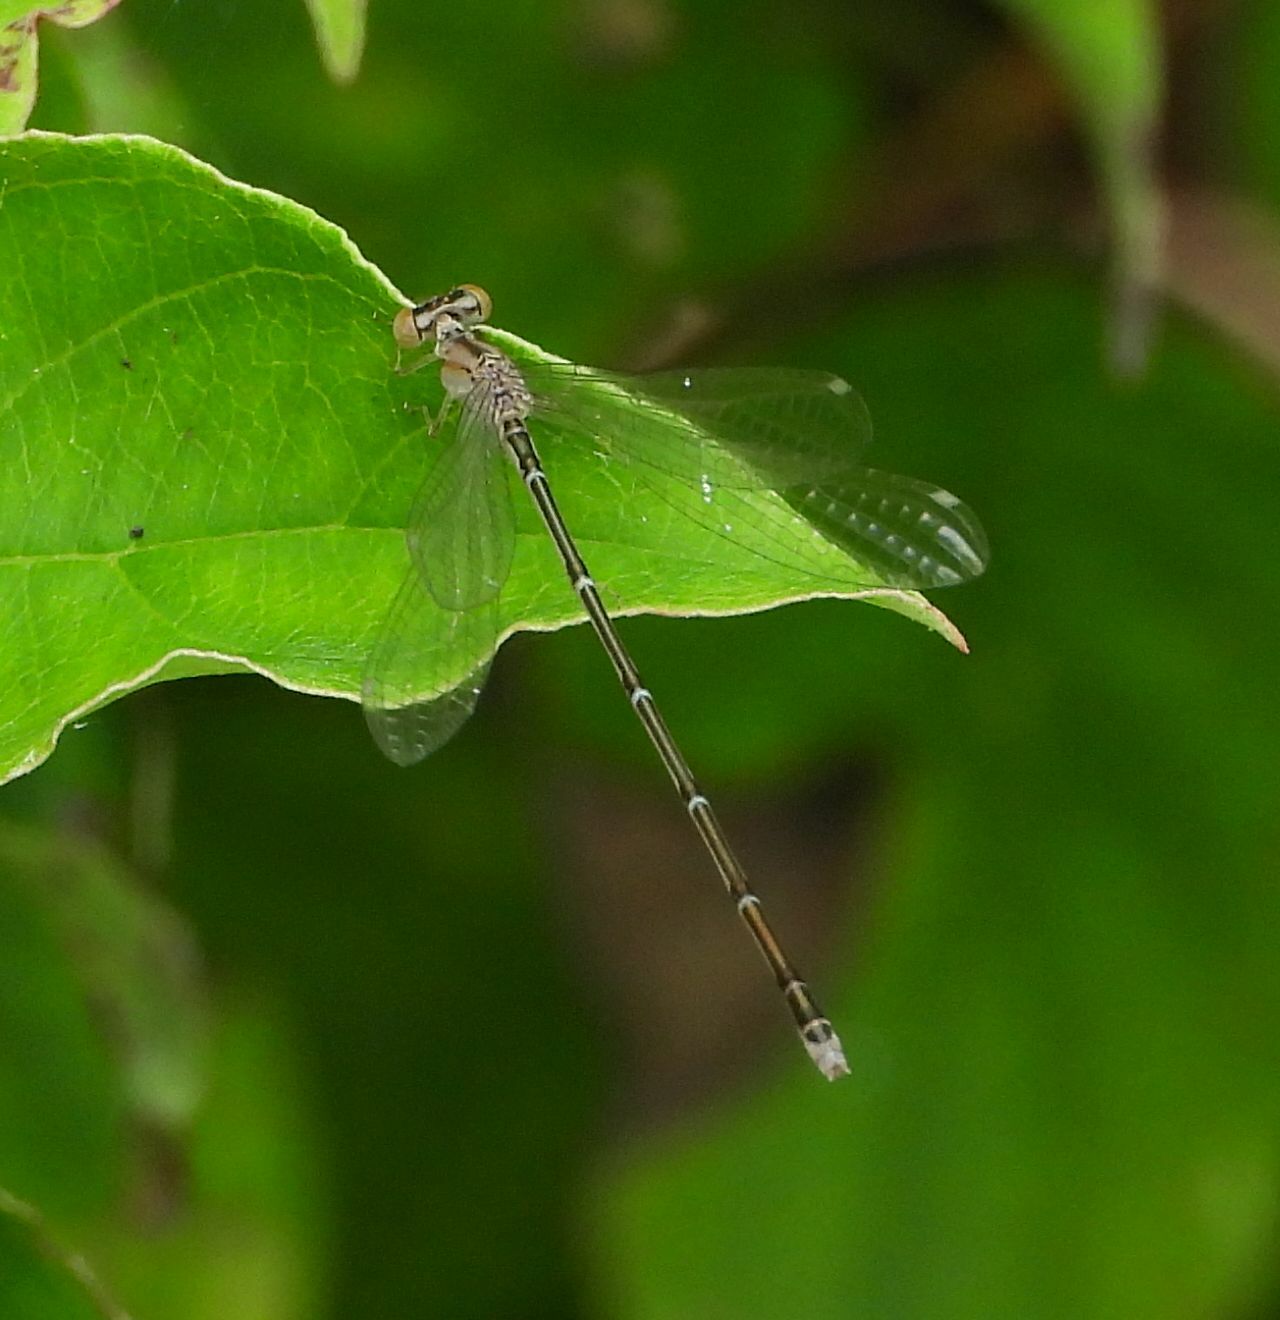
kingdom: Animalia
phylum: Arthropoda
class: Insecta
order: Odonata
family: Coenagrionidae
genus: Enallagma
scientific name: Enallagma vesperum
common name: Vesper bluet
